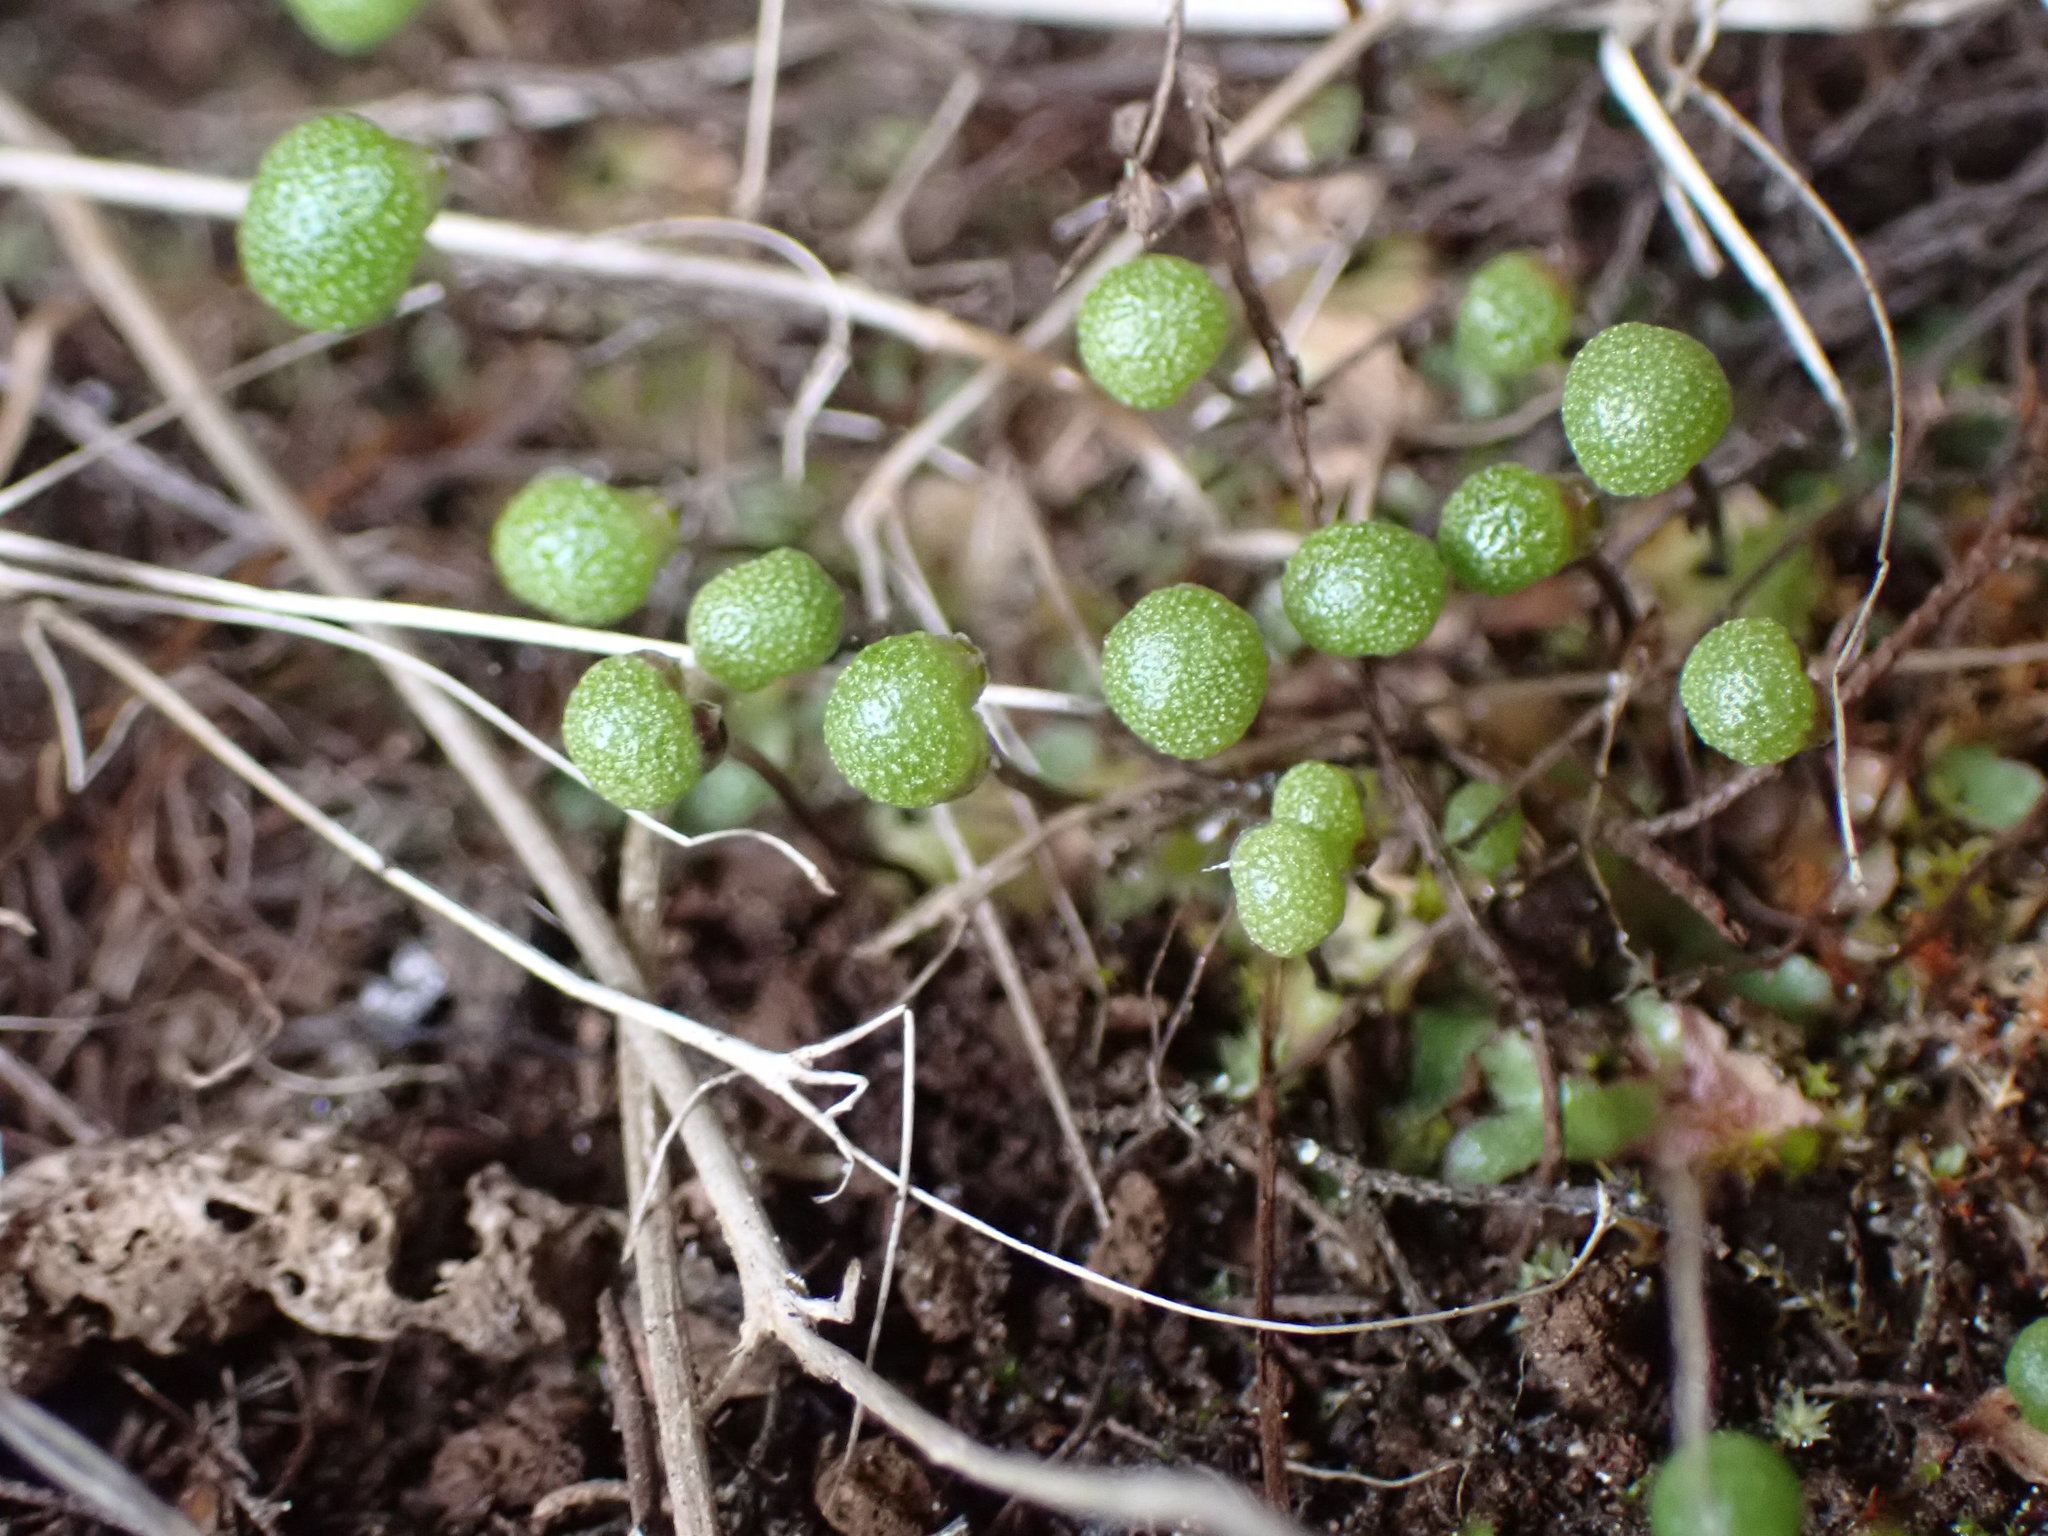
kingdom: Plantae
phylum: Marchantiophyta
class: Marchantiopsida
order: Marchantiales
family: Aytoniaceae
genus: Mannia
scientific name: Mannia gracilis
